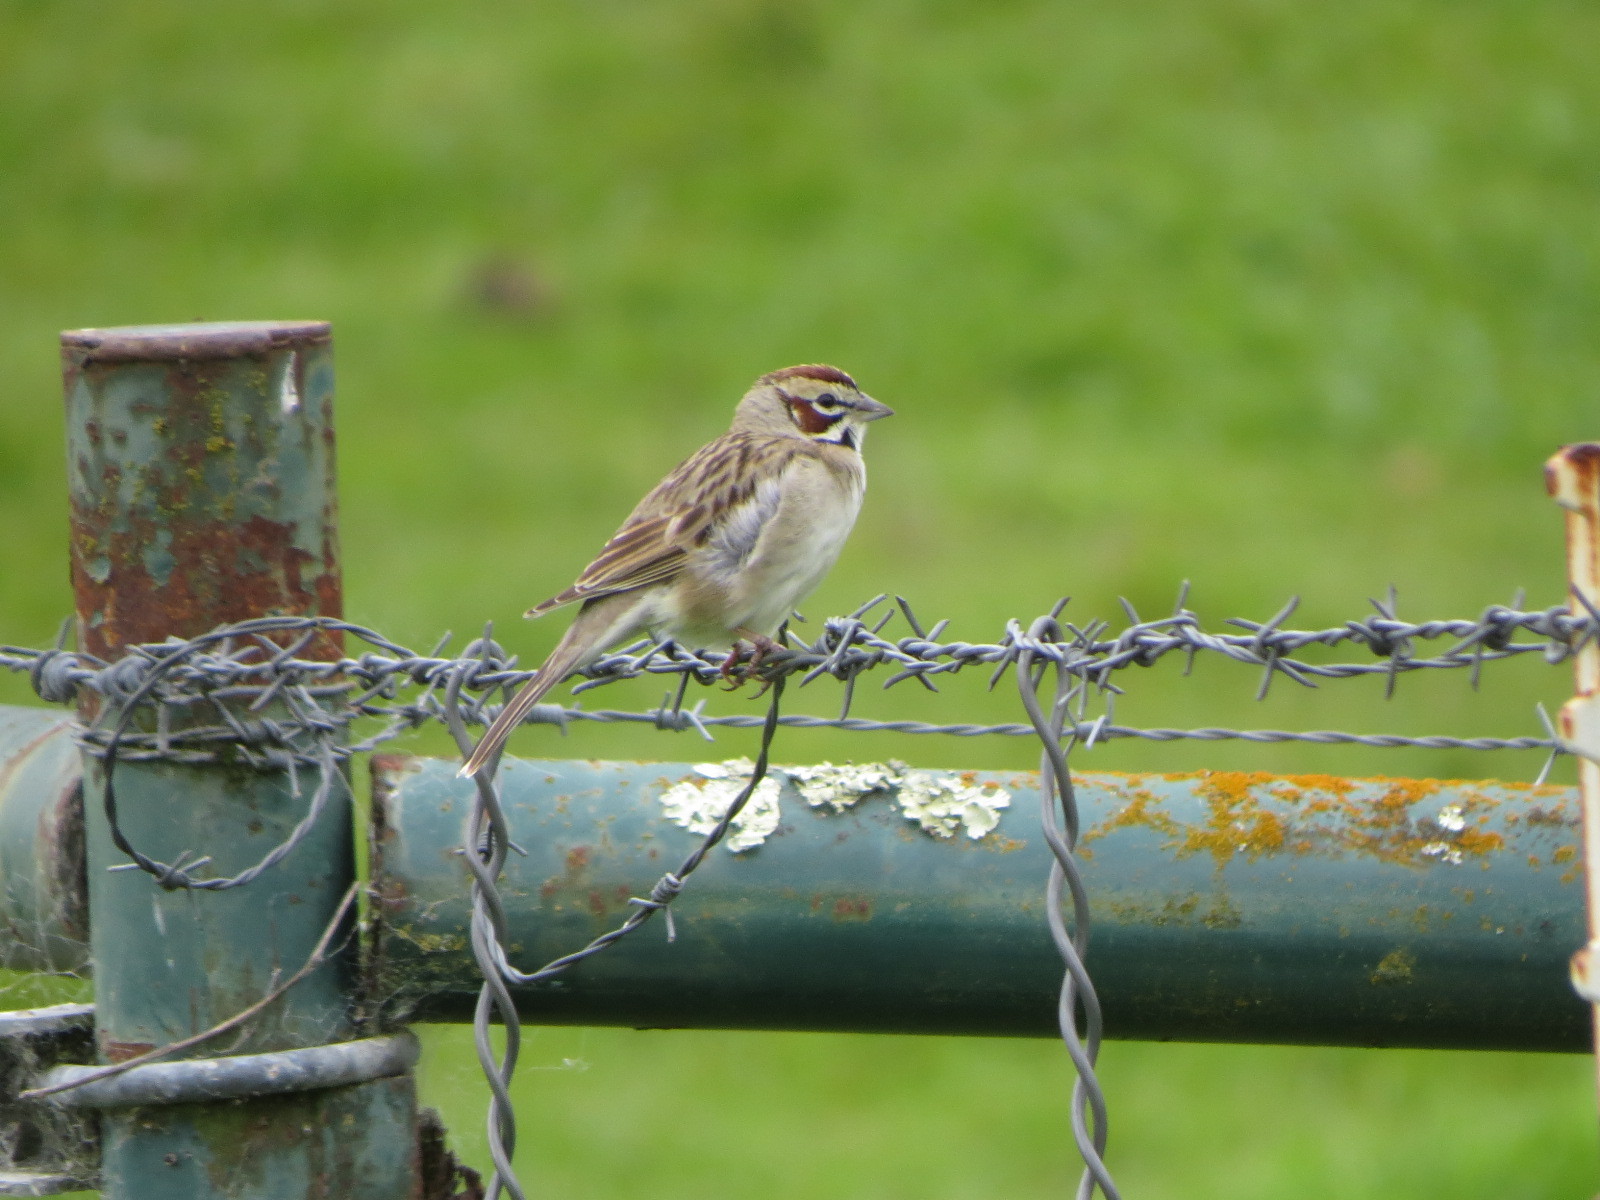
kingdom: Animalia
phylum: Chordata
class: Aves
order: Passeriformes
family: Passerellidae
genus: Chondestes
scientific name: Chondestes grammacus
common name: Lark sparrow
